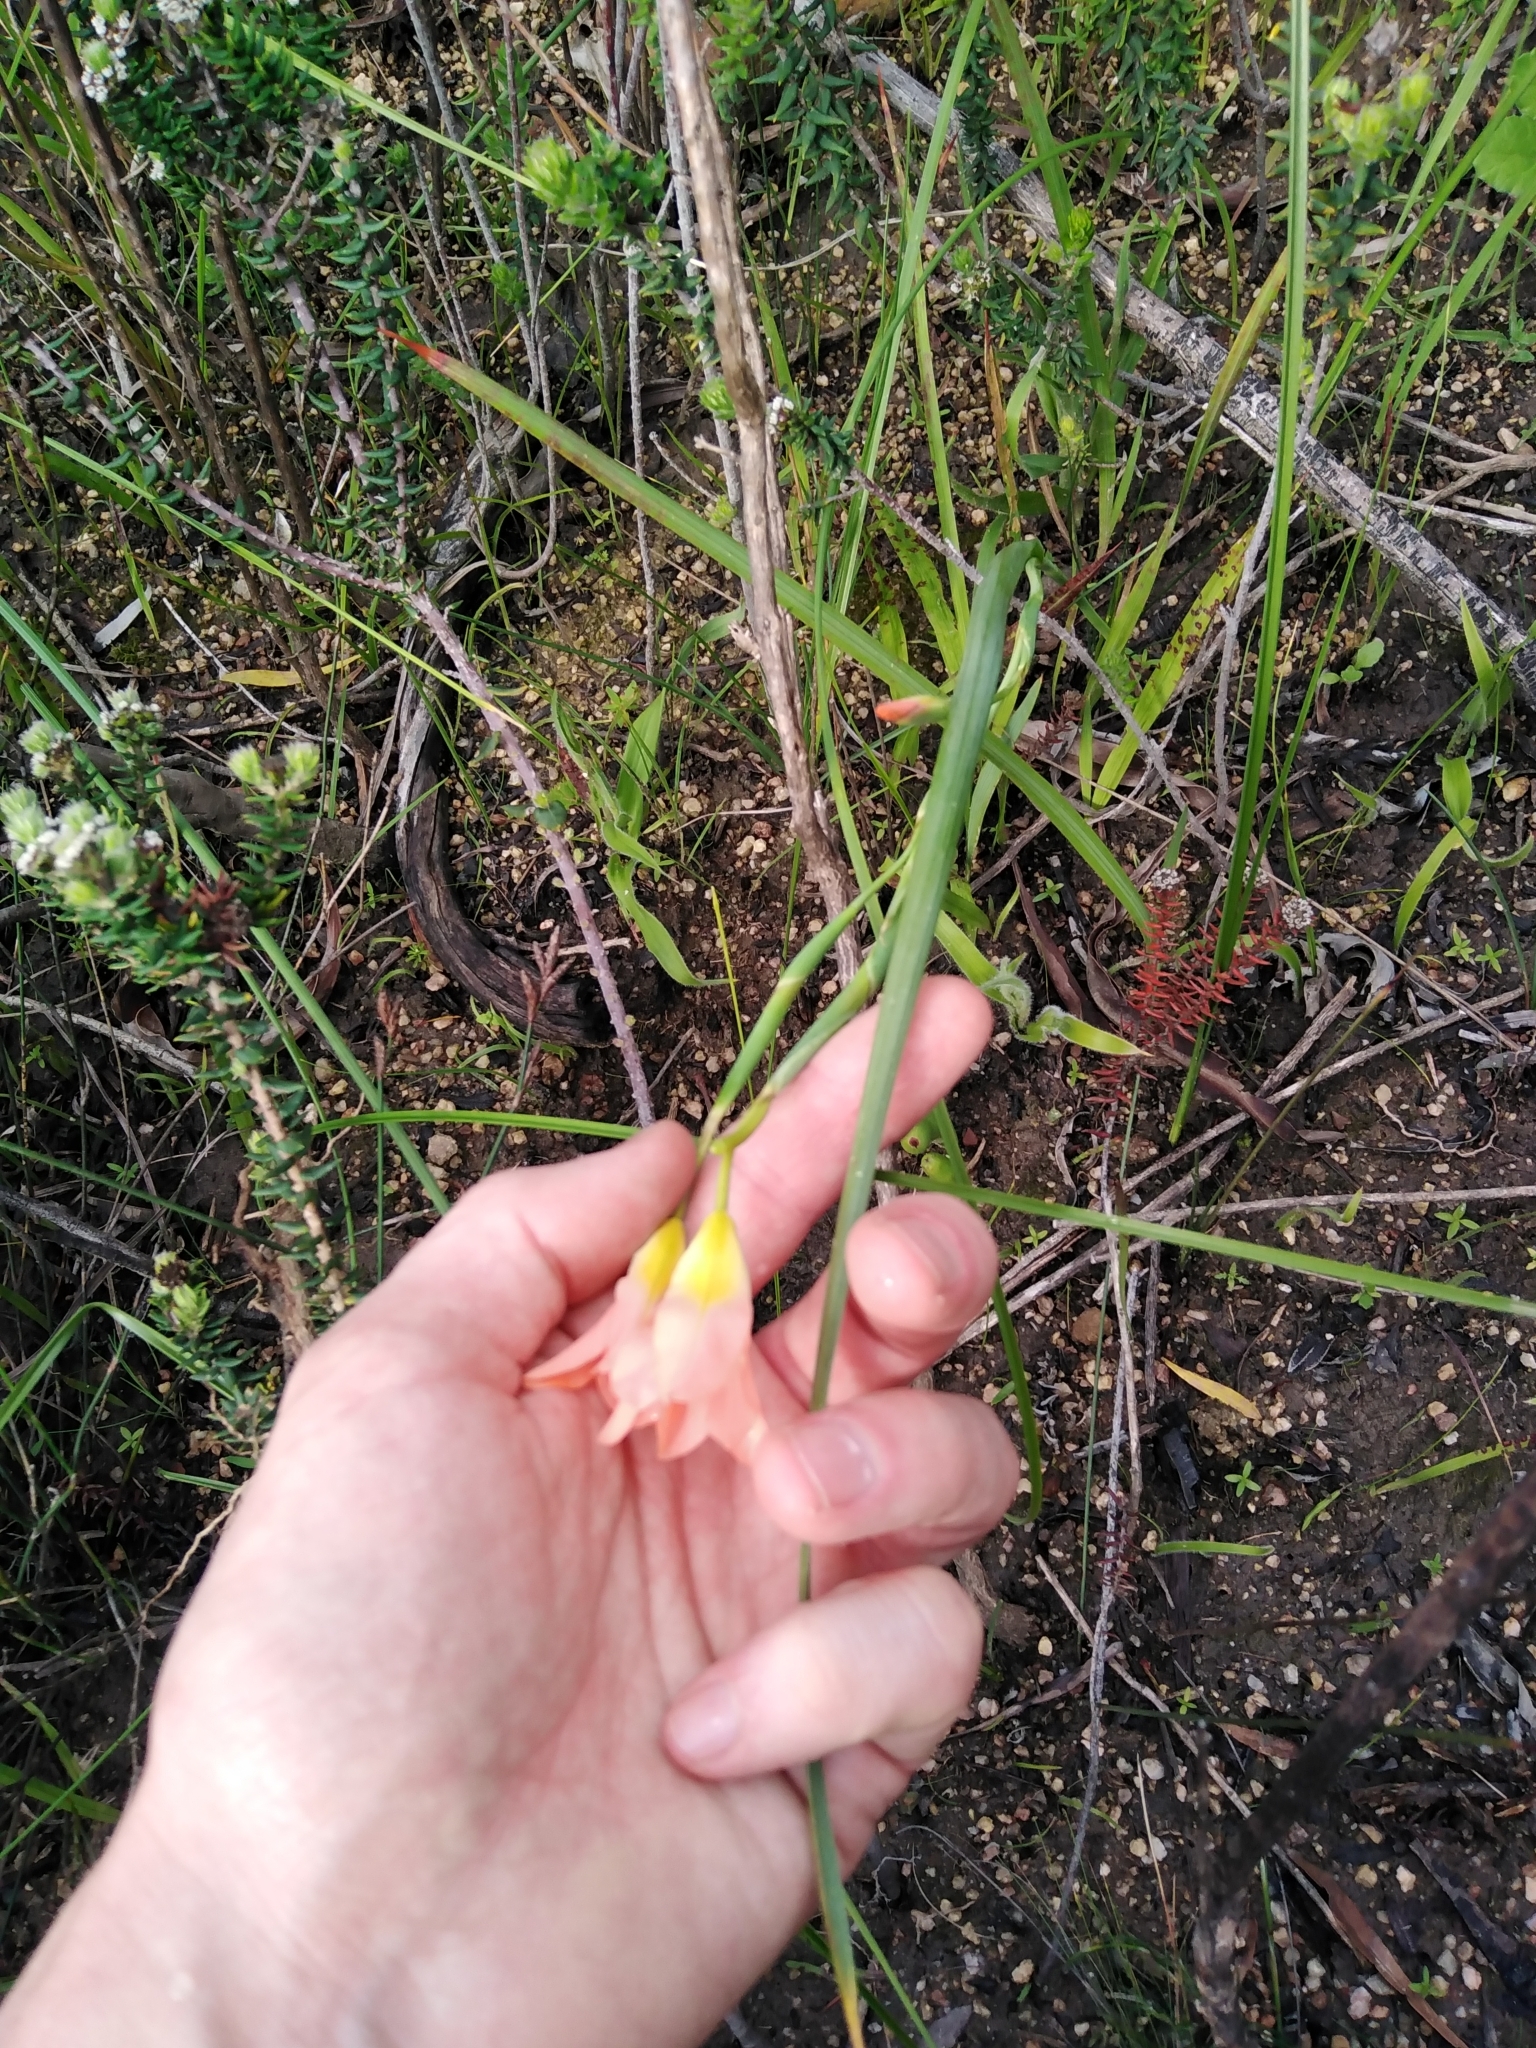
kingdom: Plantae
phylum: Tracheophyta
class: Liliopsida
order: Asparagales
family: Iridaceae
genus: Moraea
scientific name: Moraea flaccida
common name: One-leaf cape-tulip
